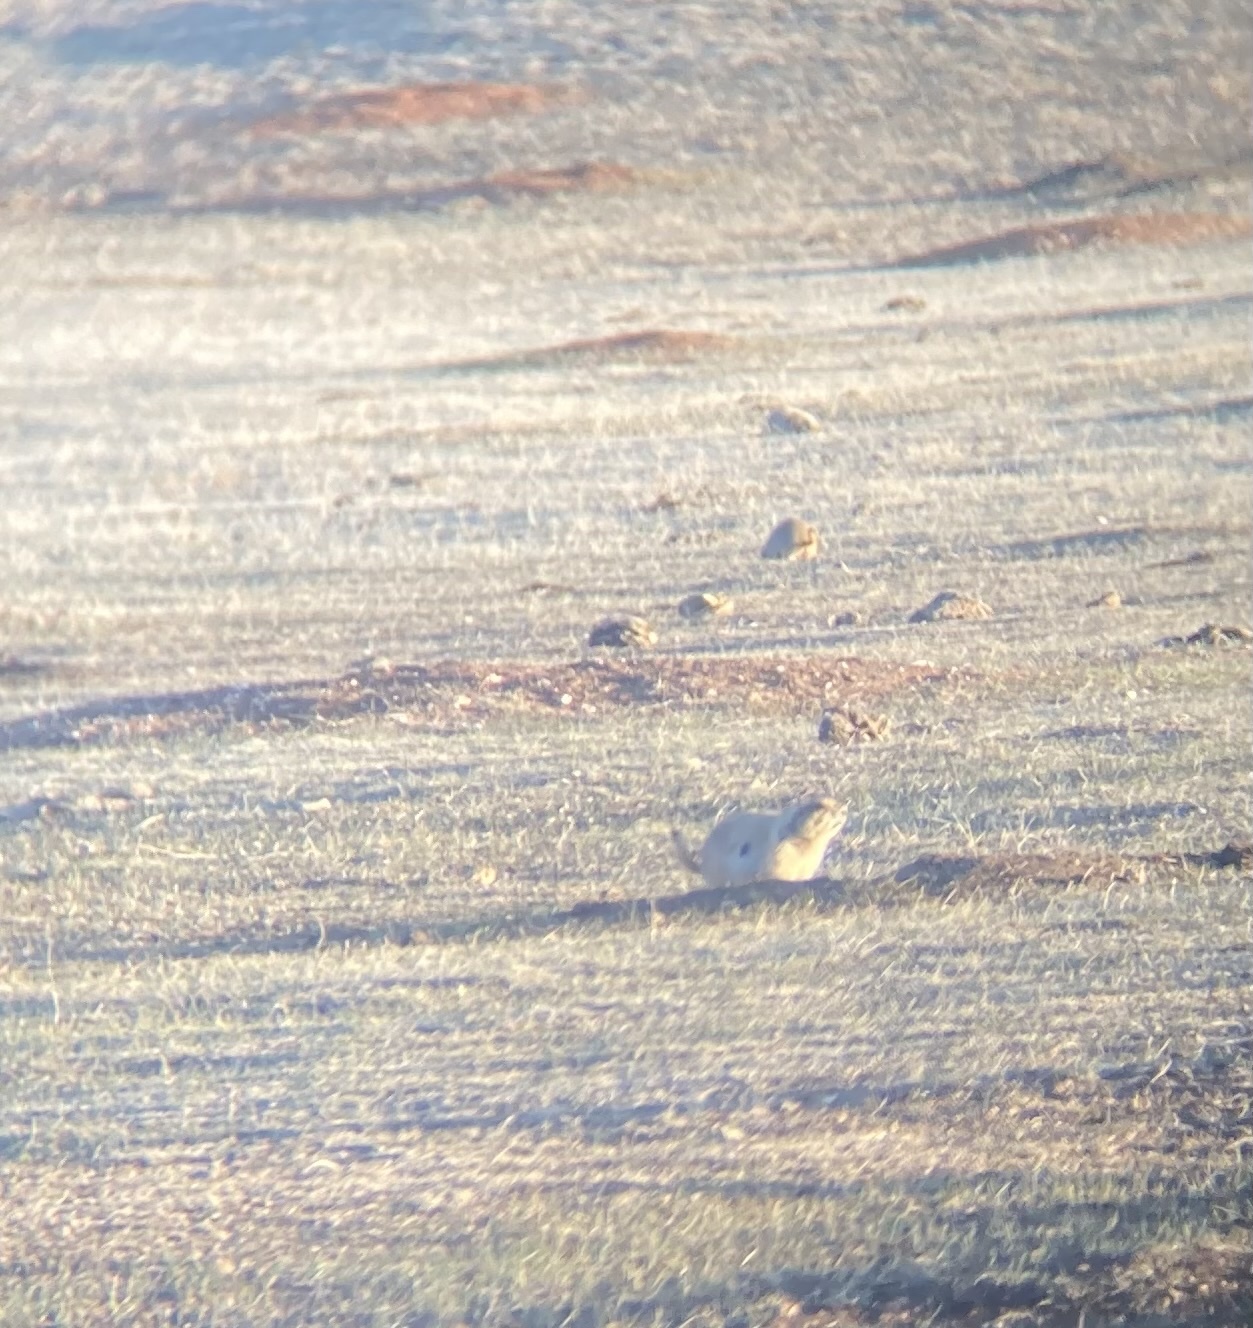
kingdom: Animalia
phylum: Chordata
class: Mammalia
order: Rodentia
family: Sciuridae
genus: Cynomys
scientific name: Cynomys ludovicianus
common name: Black-tailed prairie dog
